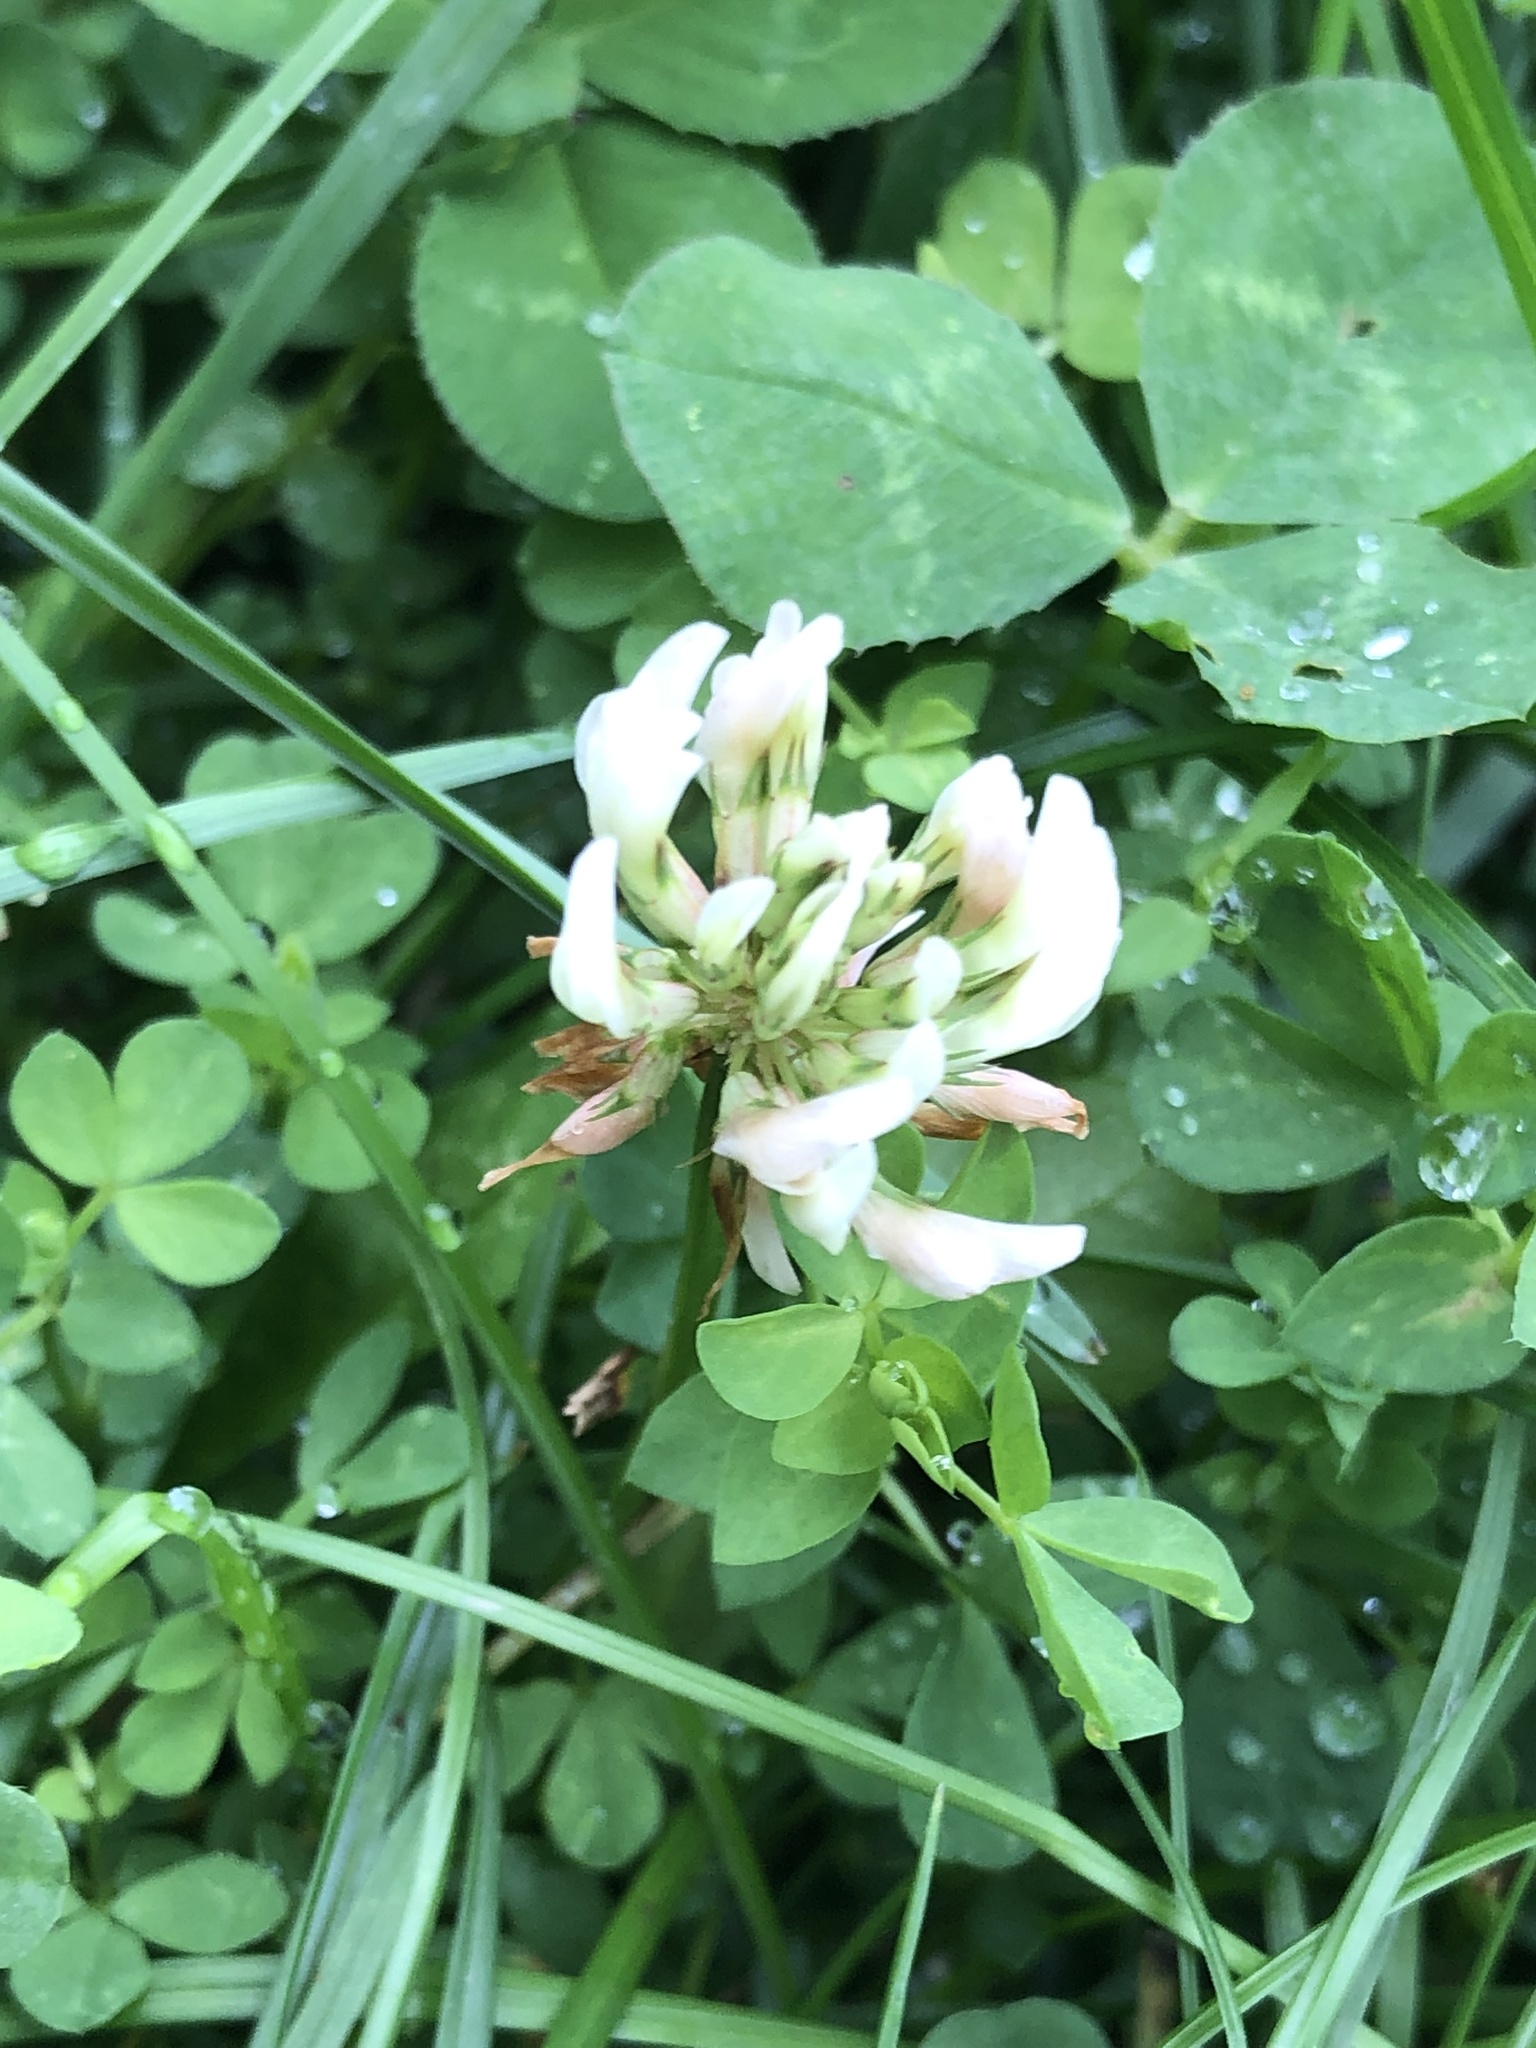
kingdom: Plantae
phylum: Tracheophyta
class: Magnoliopsida
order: Fabales
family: Fabaceae
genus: Trifolium
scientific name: Trifolium repens
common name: White clover
